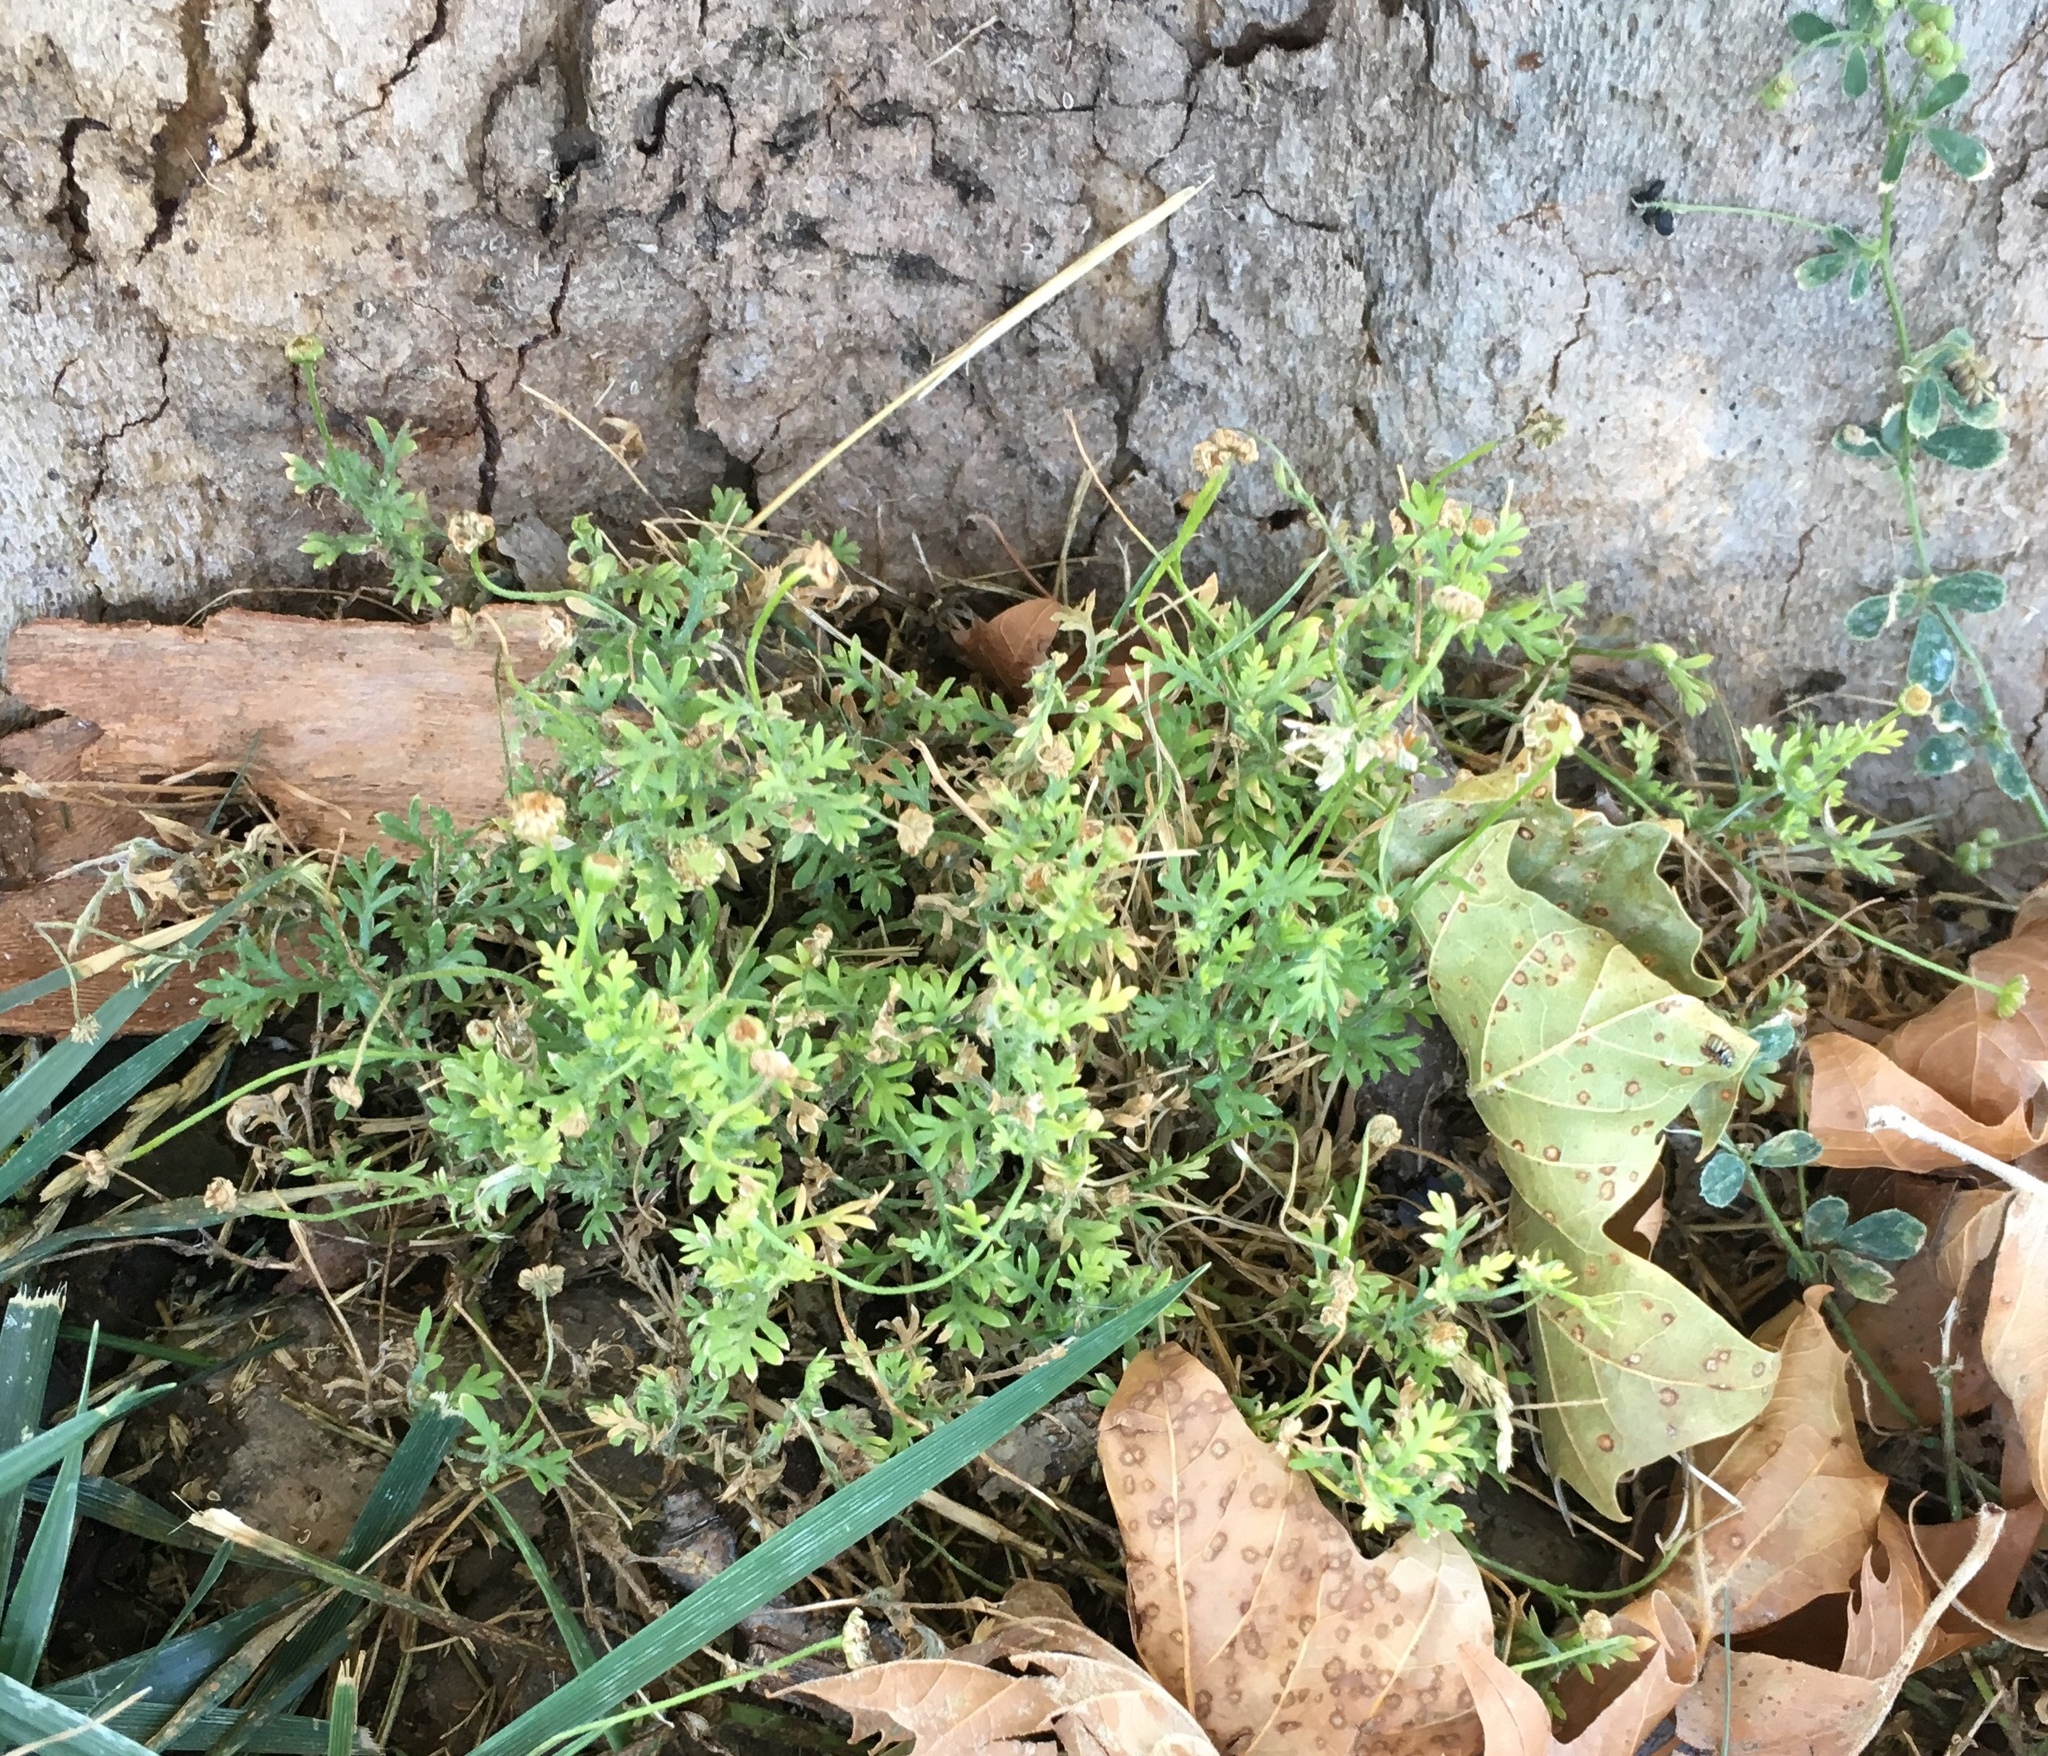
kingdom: Plantae
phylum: Tracheophyta
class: Magnoliopsida
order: Asterales
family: Asteraceae
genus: Cotula
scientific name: Cotula australis
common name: Australian waterbuttons
